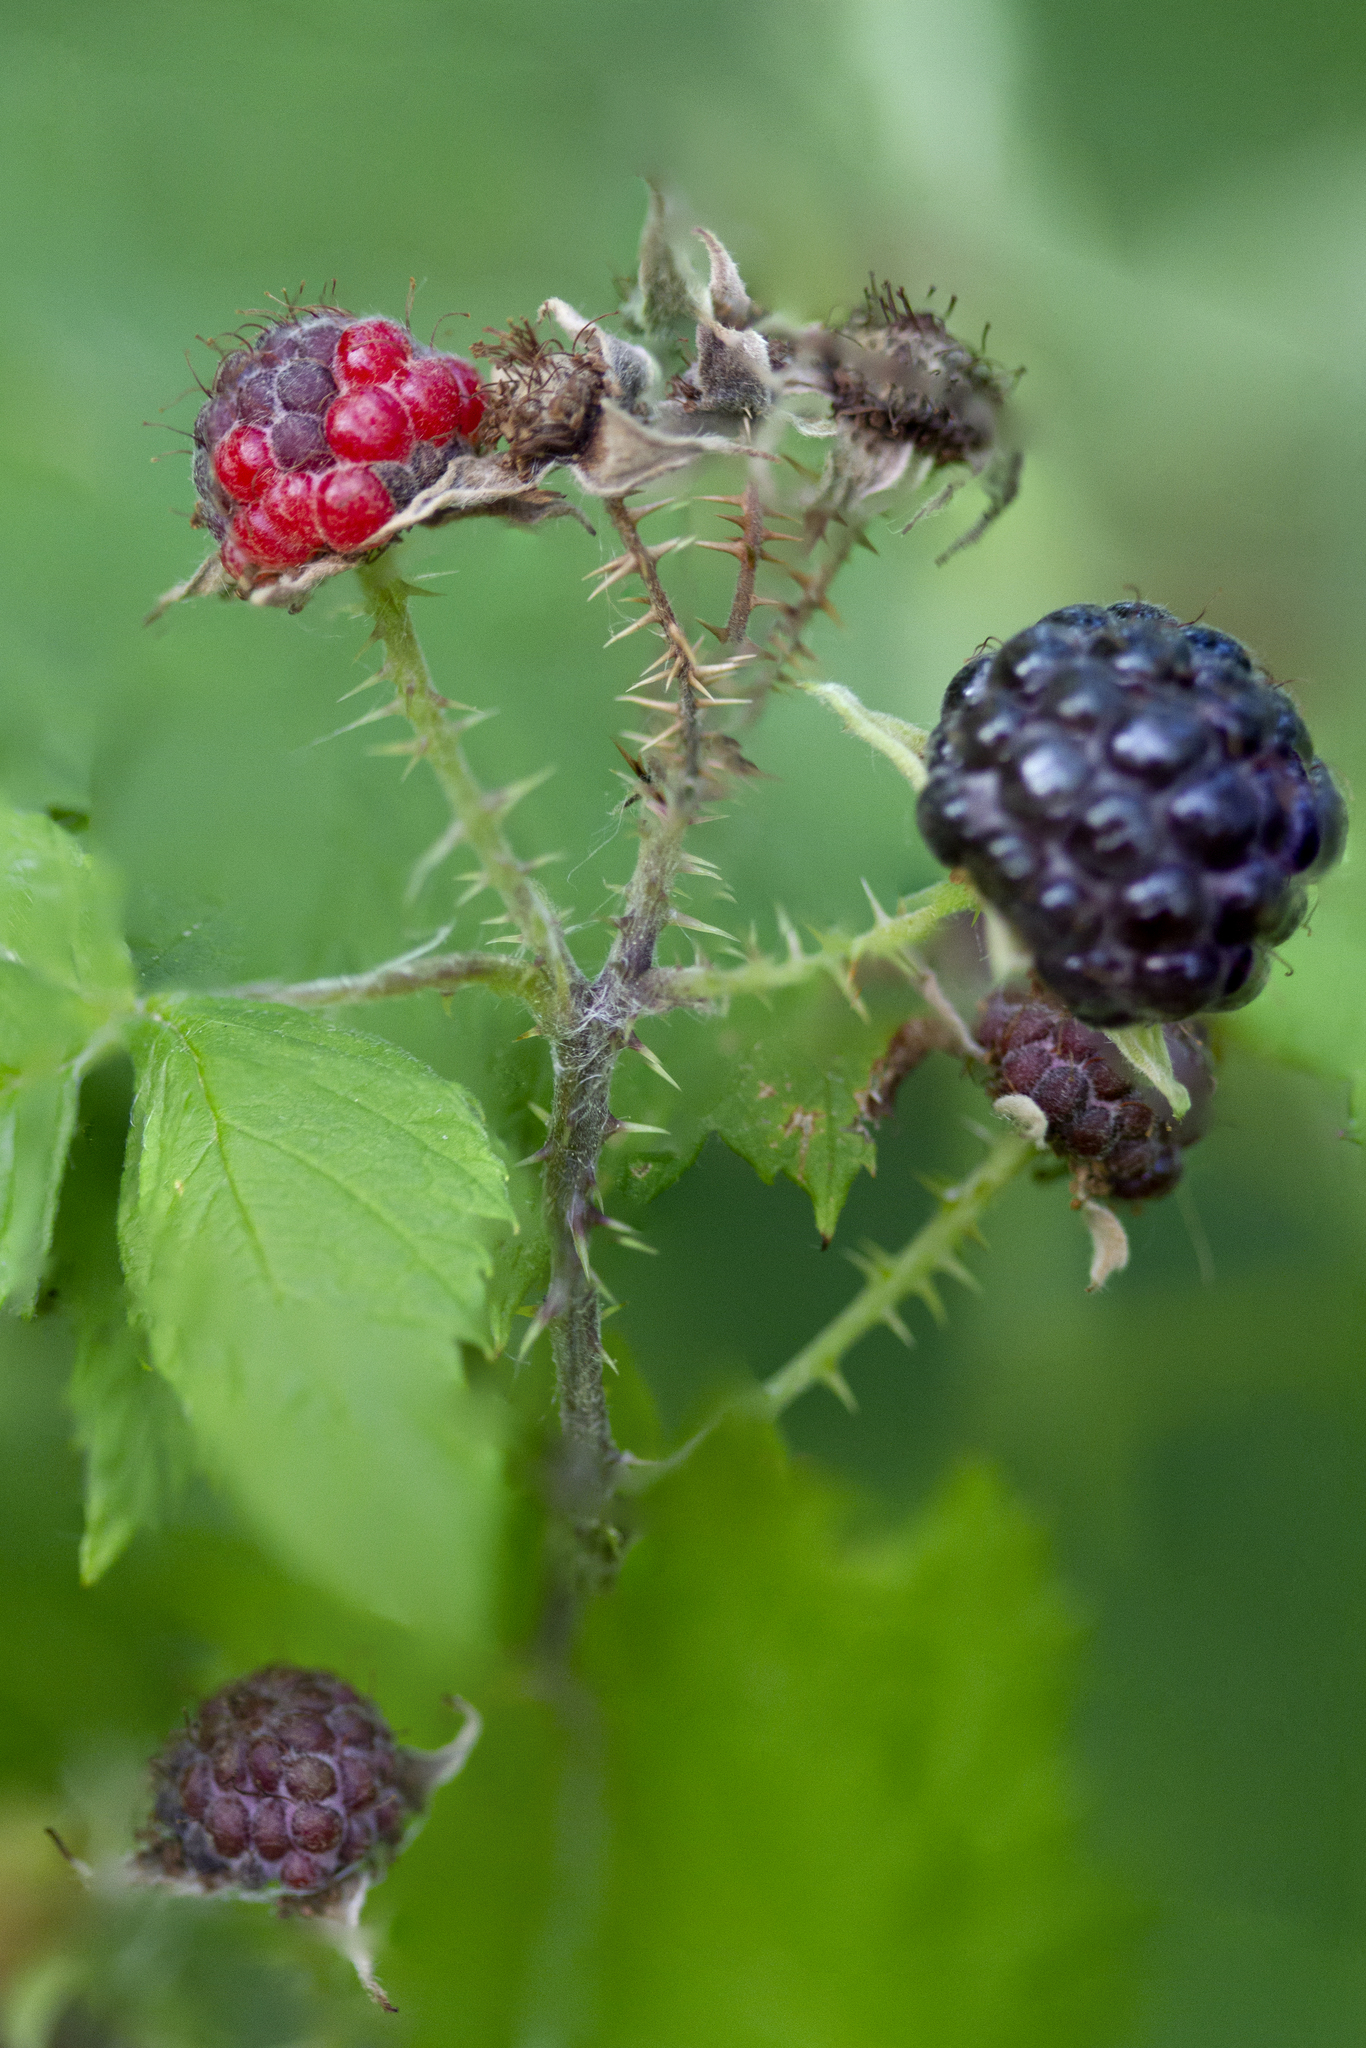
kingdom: Plantae
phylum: Tracheophyta
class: Magnoliopsida
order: Rosales
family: Rosaceae
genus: Rubus
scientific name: Rubus occidentalis
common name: Black raspberry
